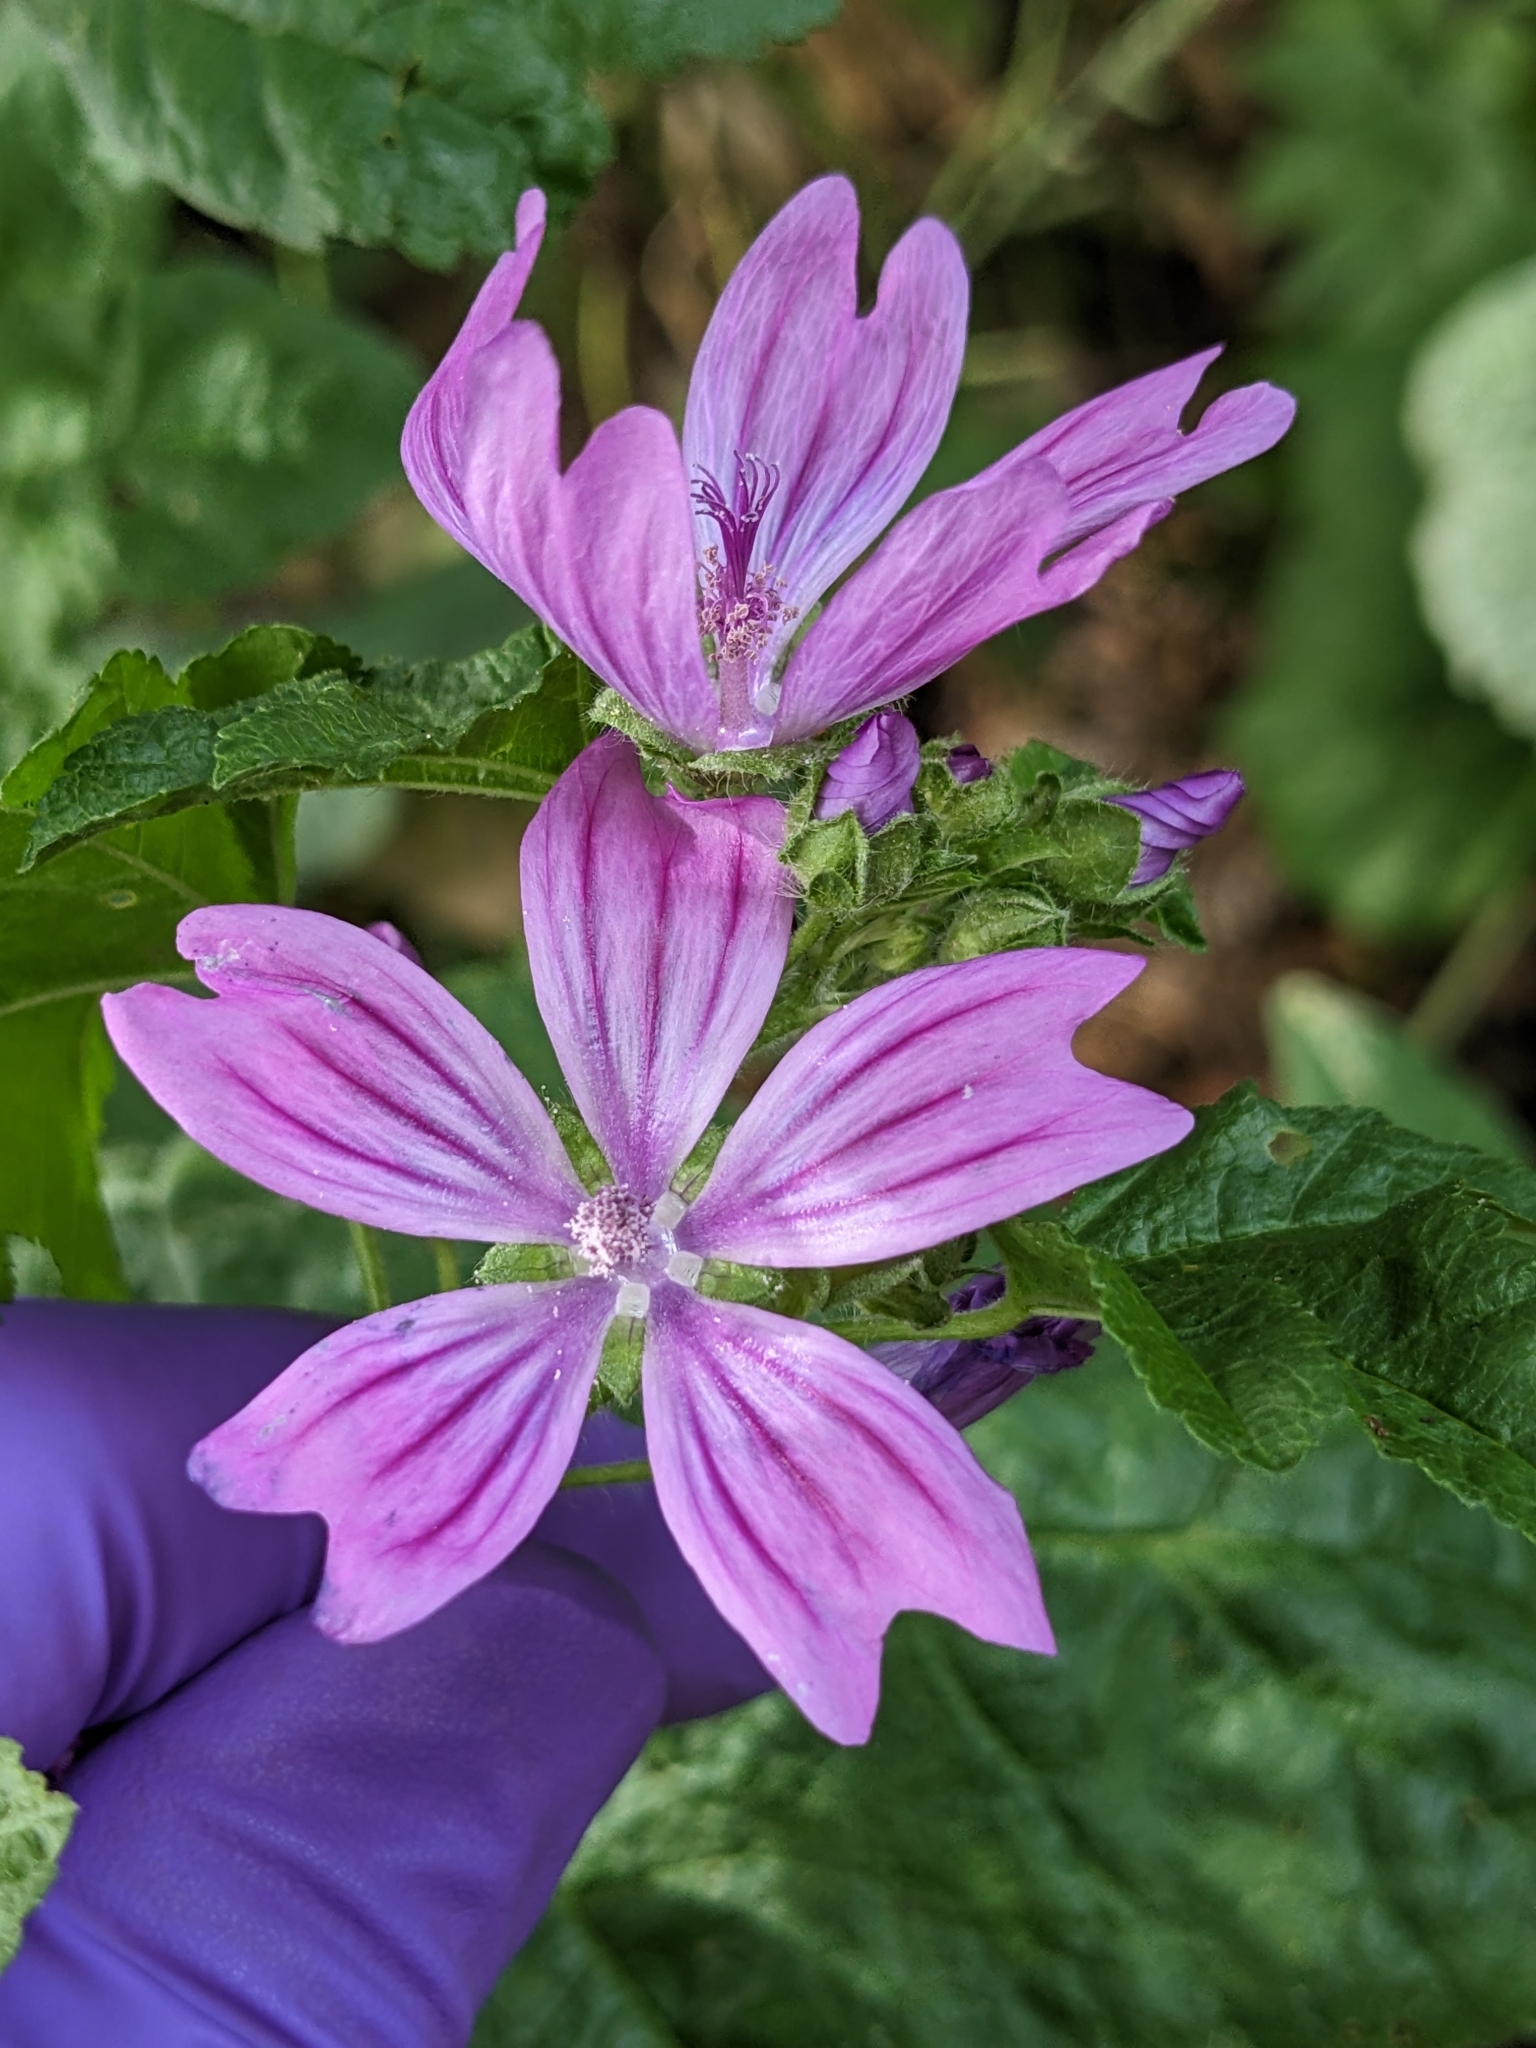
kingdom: Plantae
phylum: Tracheophyta
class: Magnoliopsida
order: Malvales
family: Malvaceae
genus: Malva
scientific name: Malva sylvestris
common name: Common mallow
